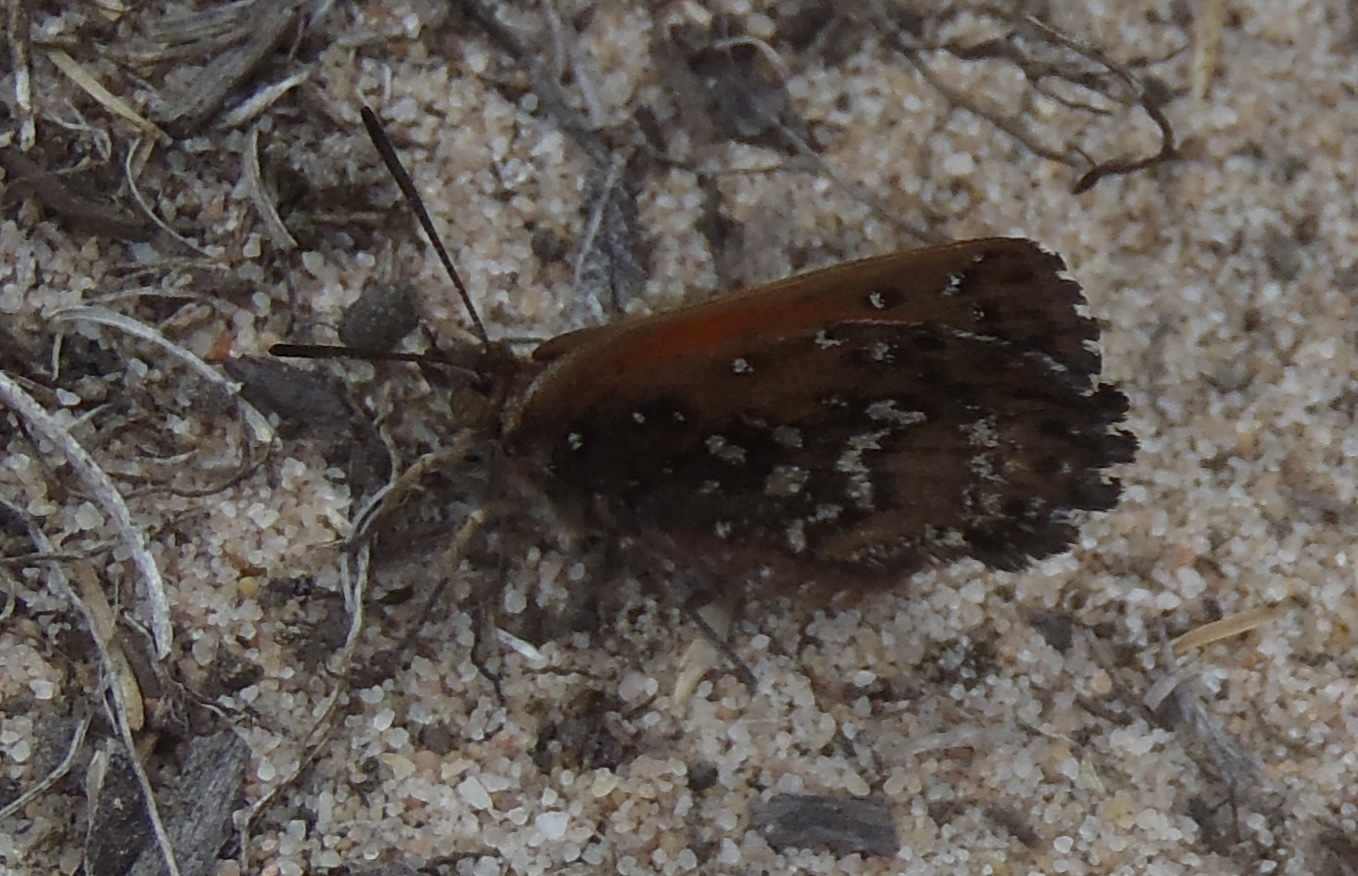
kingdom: Animalia
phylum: Arthropoda
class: Insecta
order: Lepidoptera
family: Lycaenidae
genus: Aloeides
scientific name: Aloeides thyra
